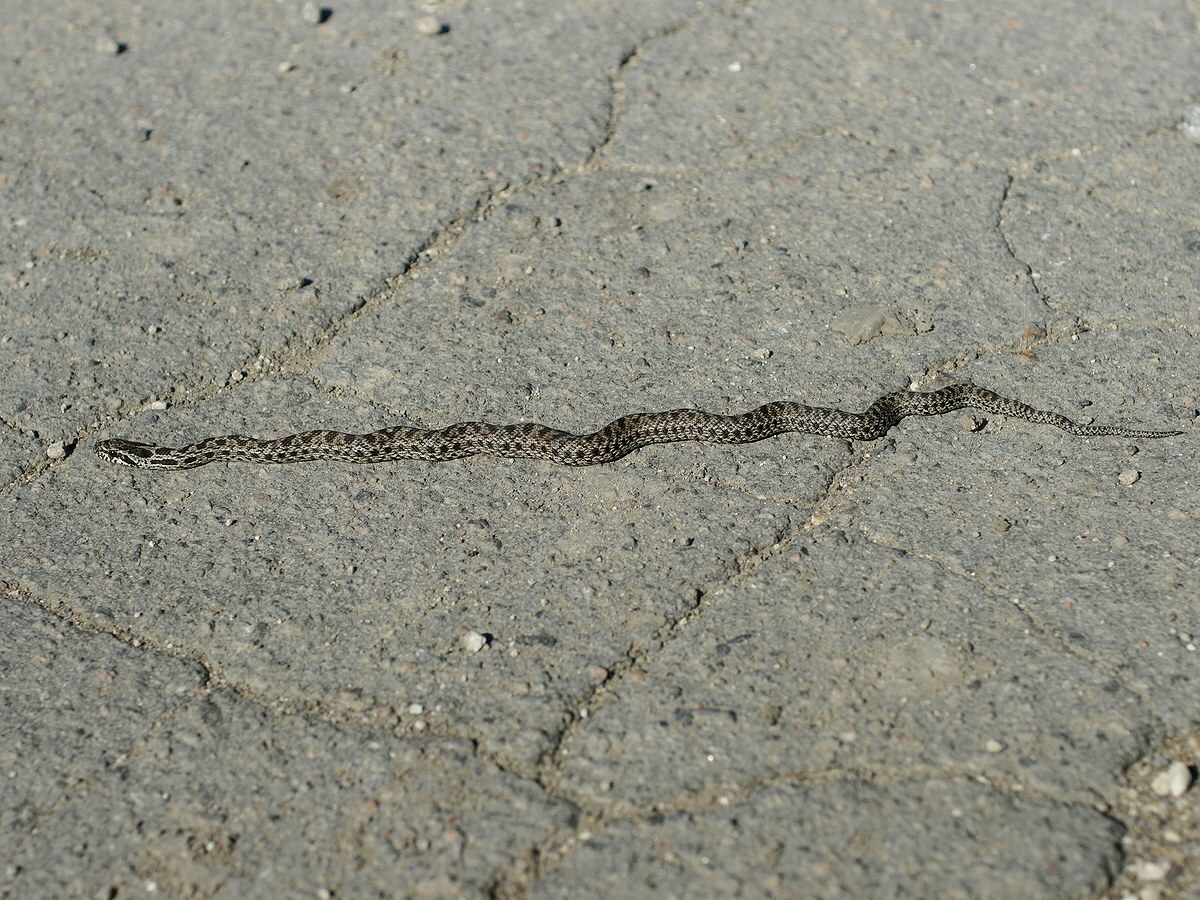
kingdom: Animalia
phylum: Chordata
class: Squamata
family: Colubridae
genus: Elaphe
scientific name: Elaphe sauromates
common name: Eastern four-lined ratsnake
